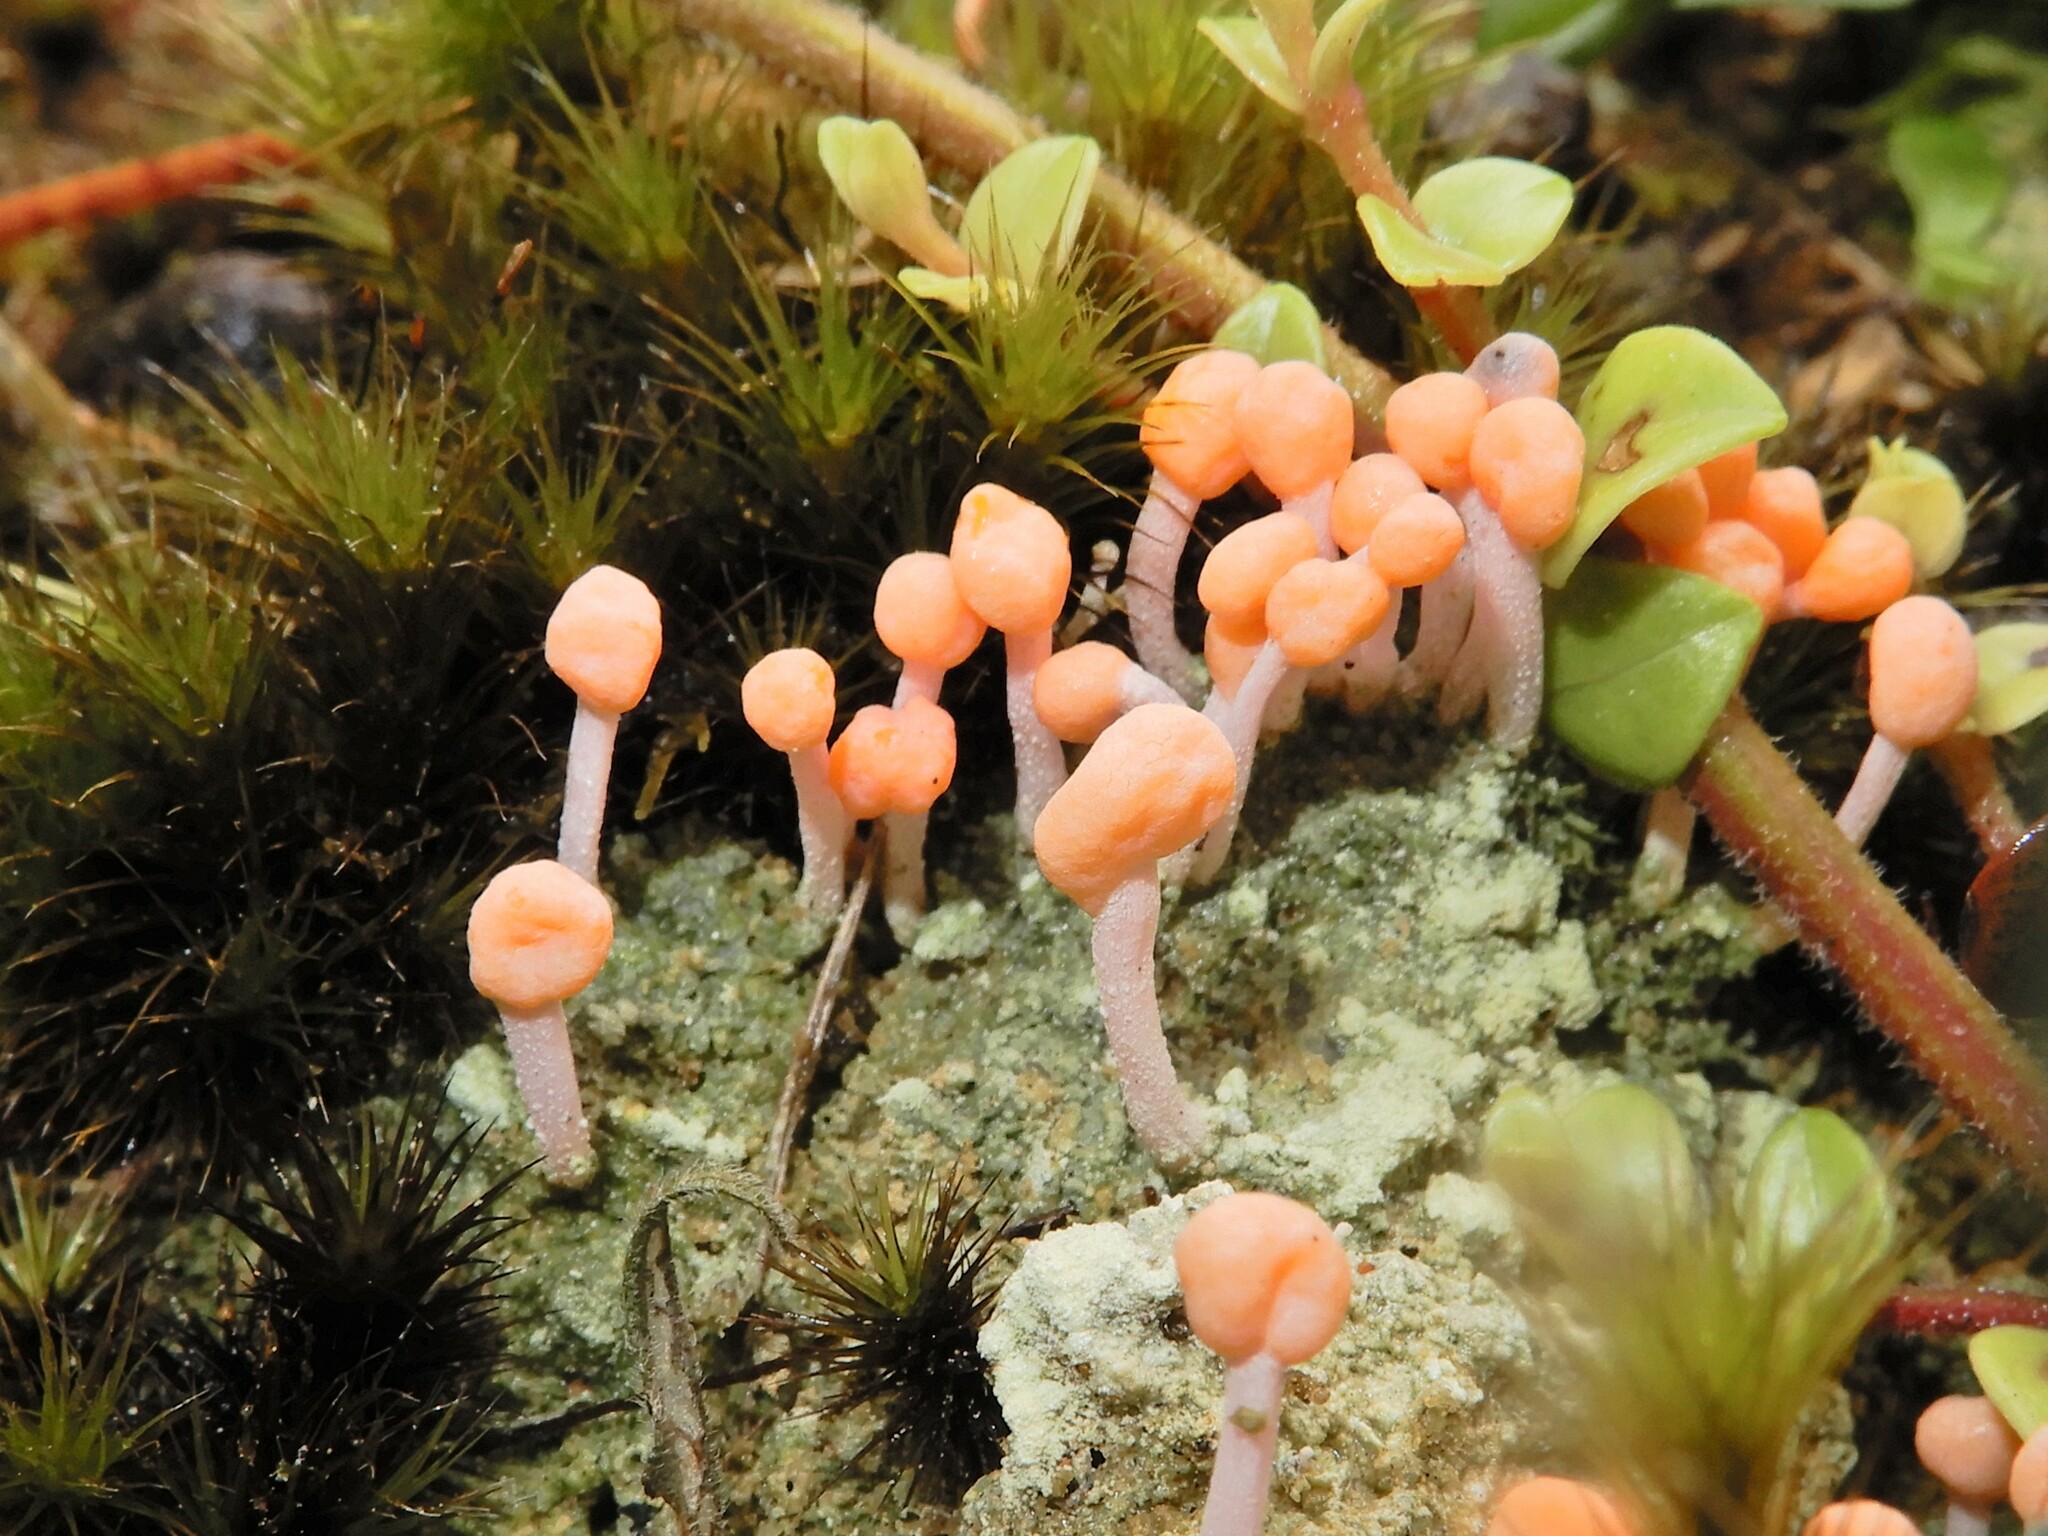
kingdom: Fungi
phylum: Ascomycota
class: Lecanoromycetes
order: Pertusariales
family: Icmadophilaceae
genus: Dibaeis
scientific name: Dibaeis arcuata
